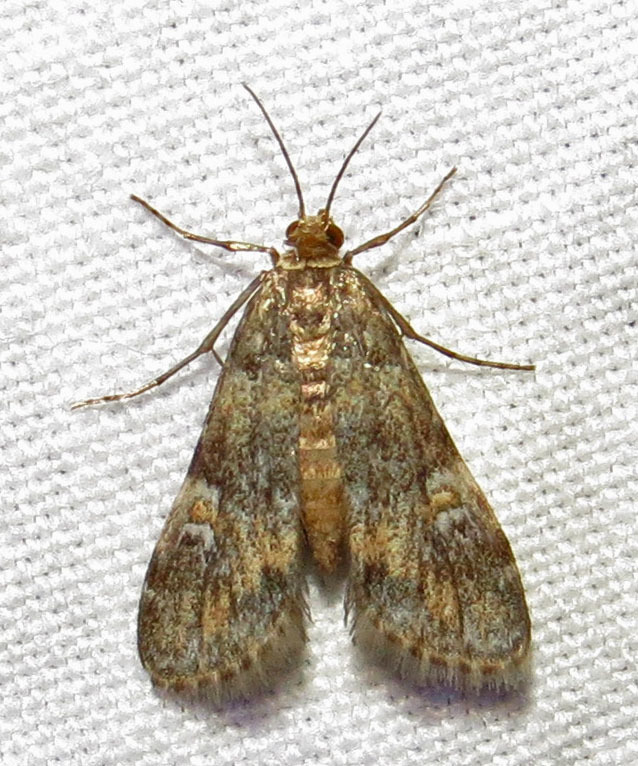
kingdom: Animalia
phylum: Arthropoda
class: Insecta
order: Lepidoptera
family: Crambidae
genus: Elophila
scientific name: Elophila obliteralis
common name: Waterlily leafcutter moth
